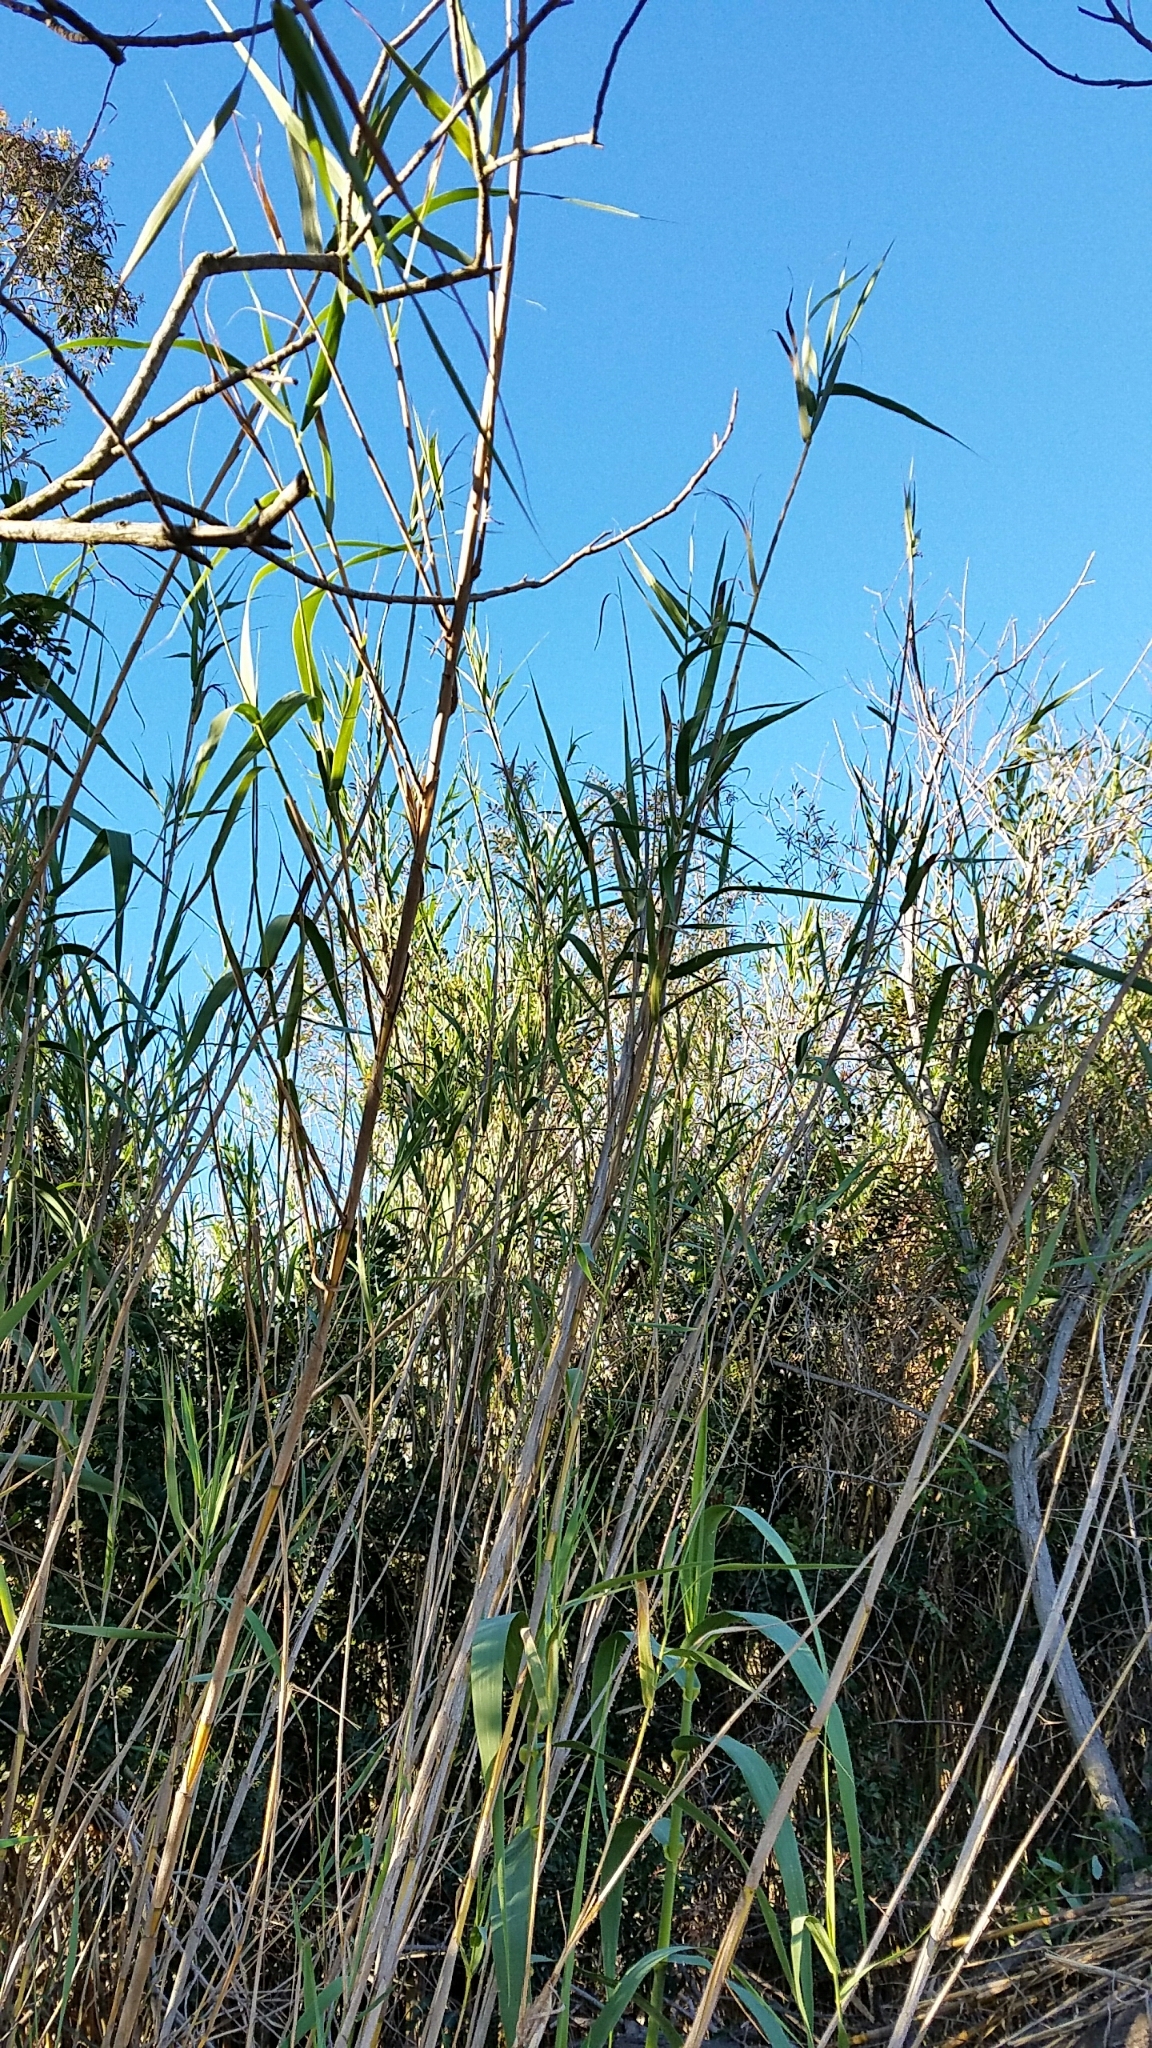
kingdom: Plantae
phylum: Tracheophyta
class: Liliopsida
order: Poales
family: Poaceae
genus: Arundo
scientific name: Arundo donax
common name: Giant reed
